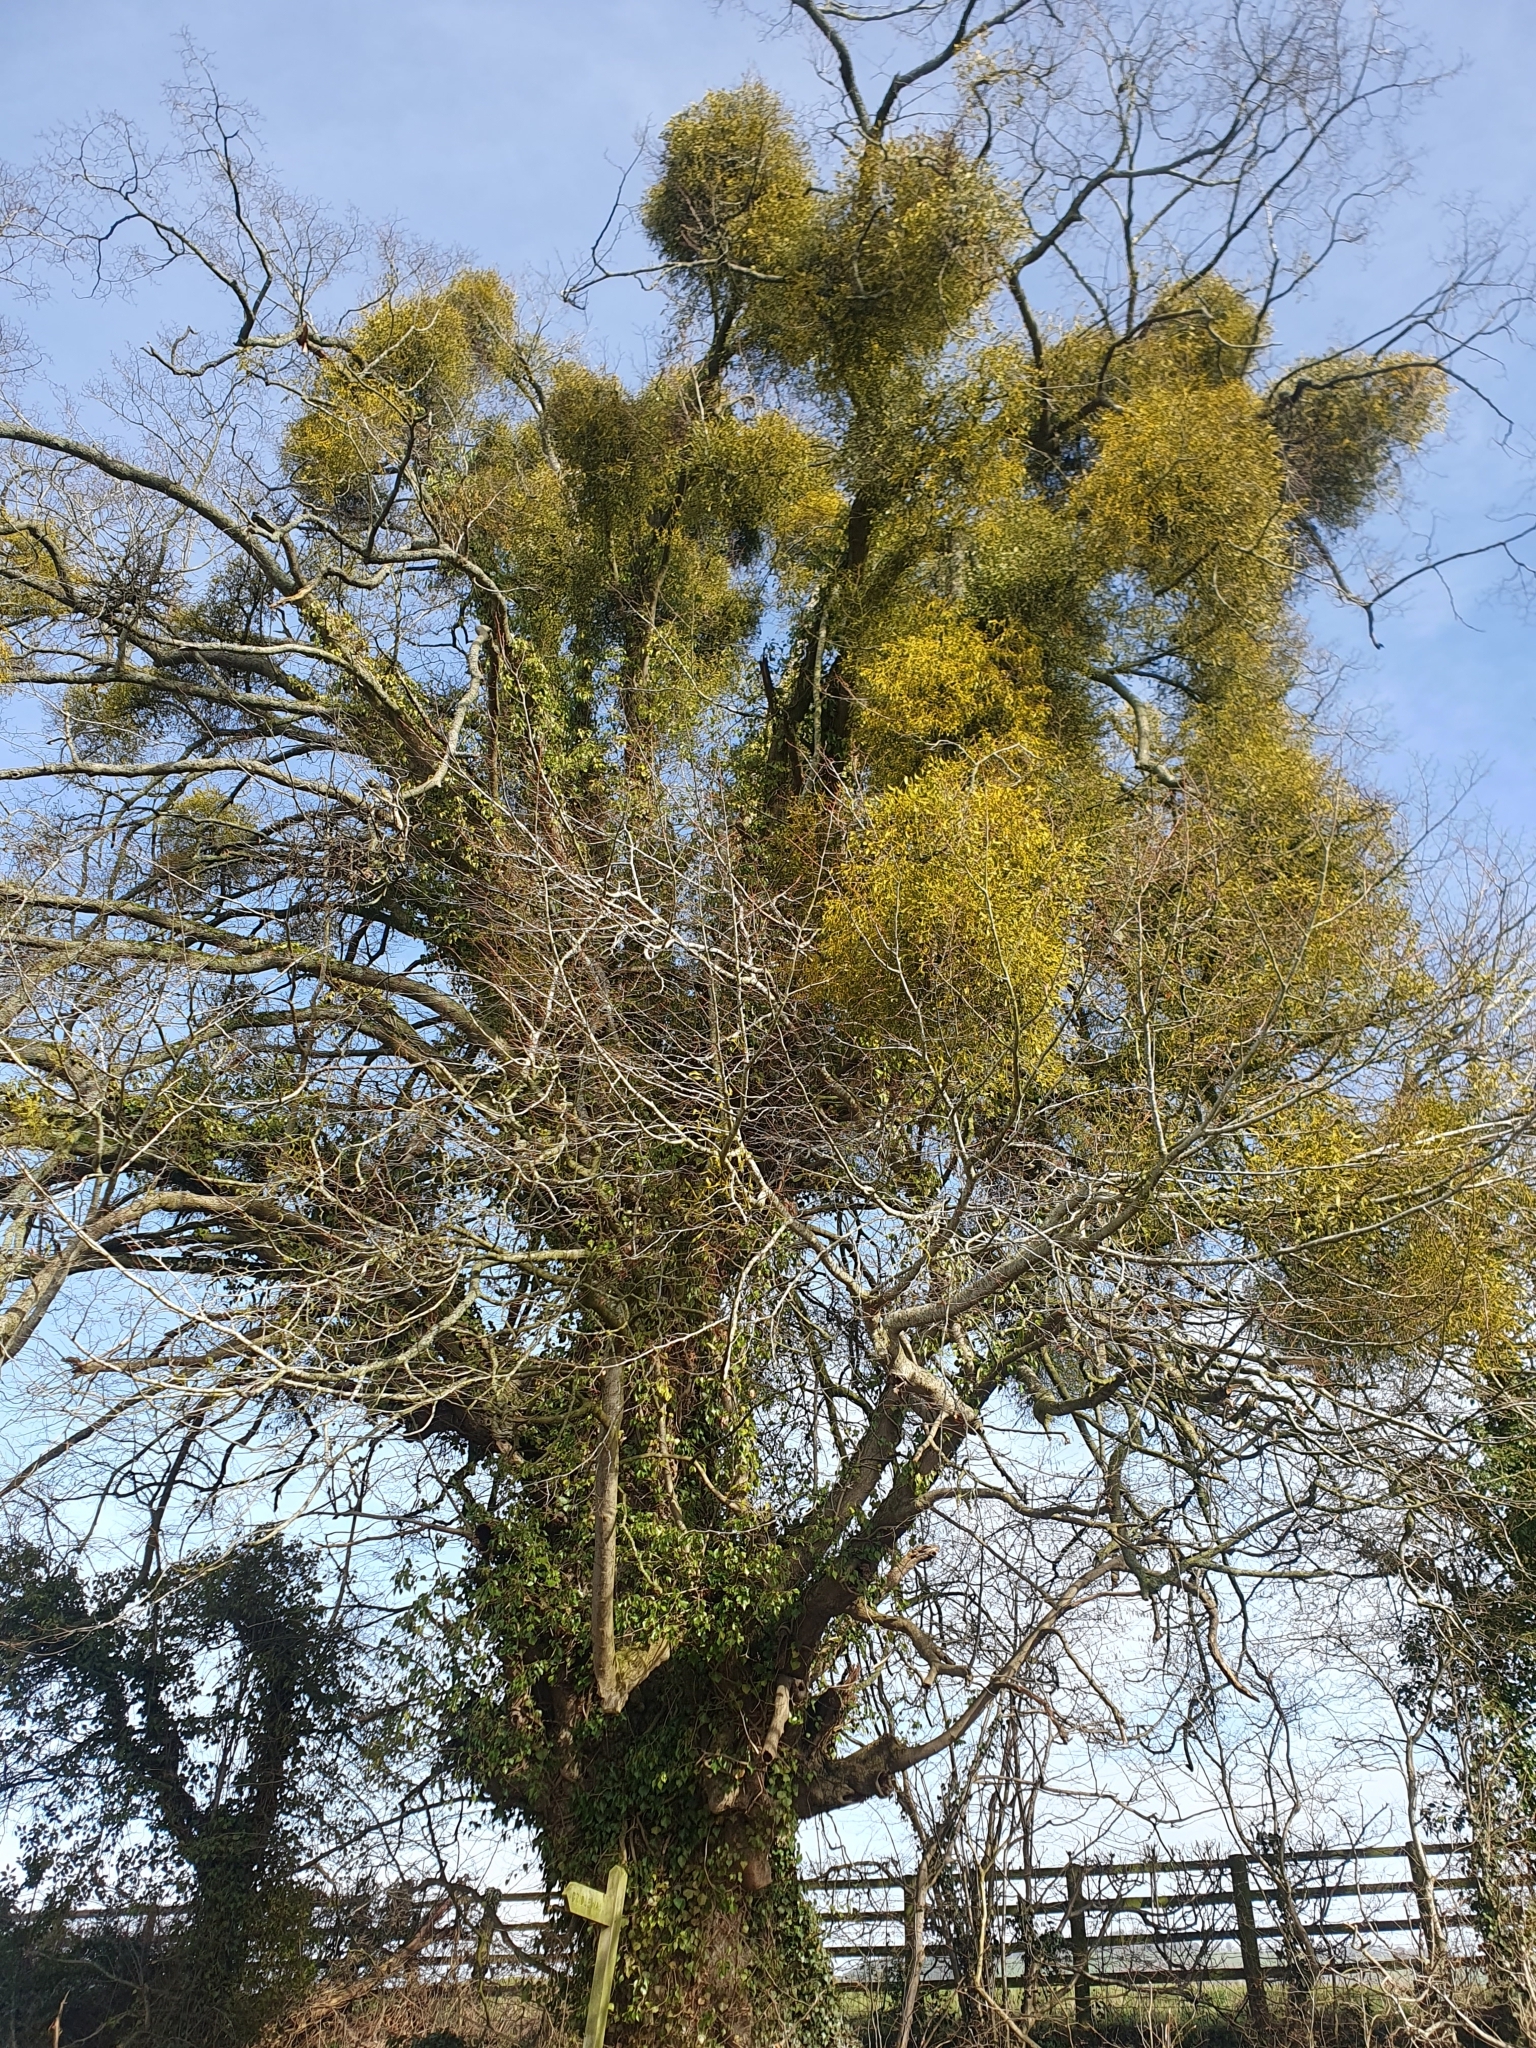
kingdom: Plantae
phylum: Tracheophyta
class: Magnoliopsida
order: Santalales
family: Viscaceae
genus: Viscum
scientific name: Viscum album
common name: Mistletoe
